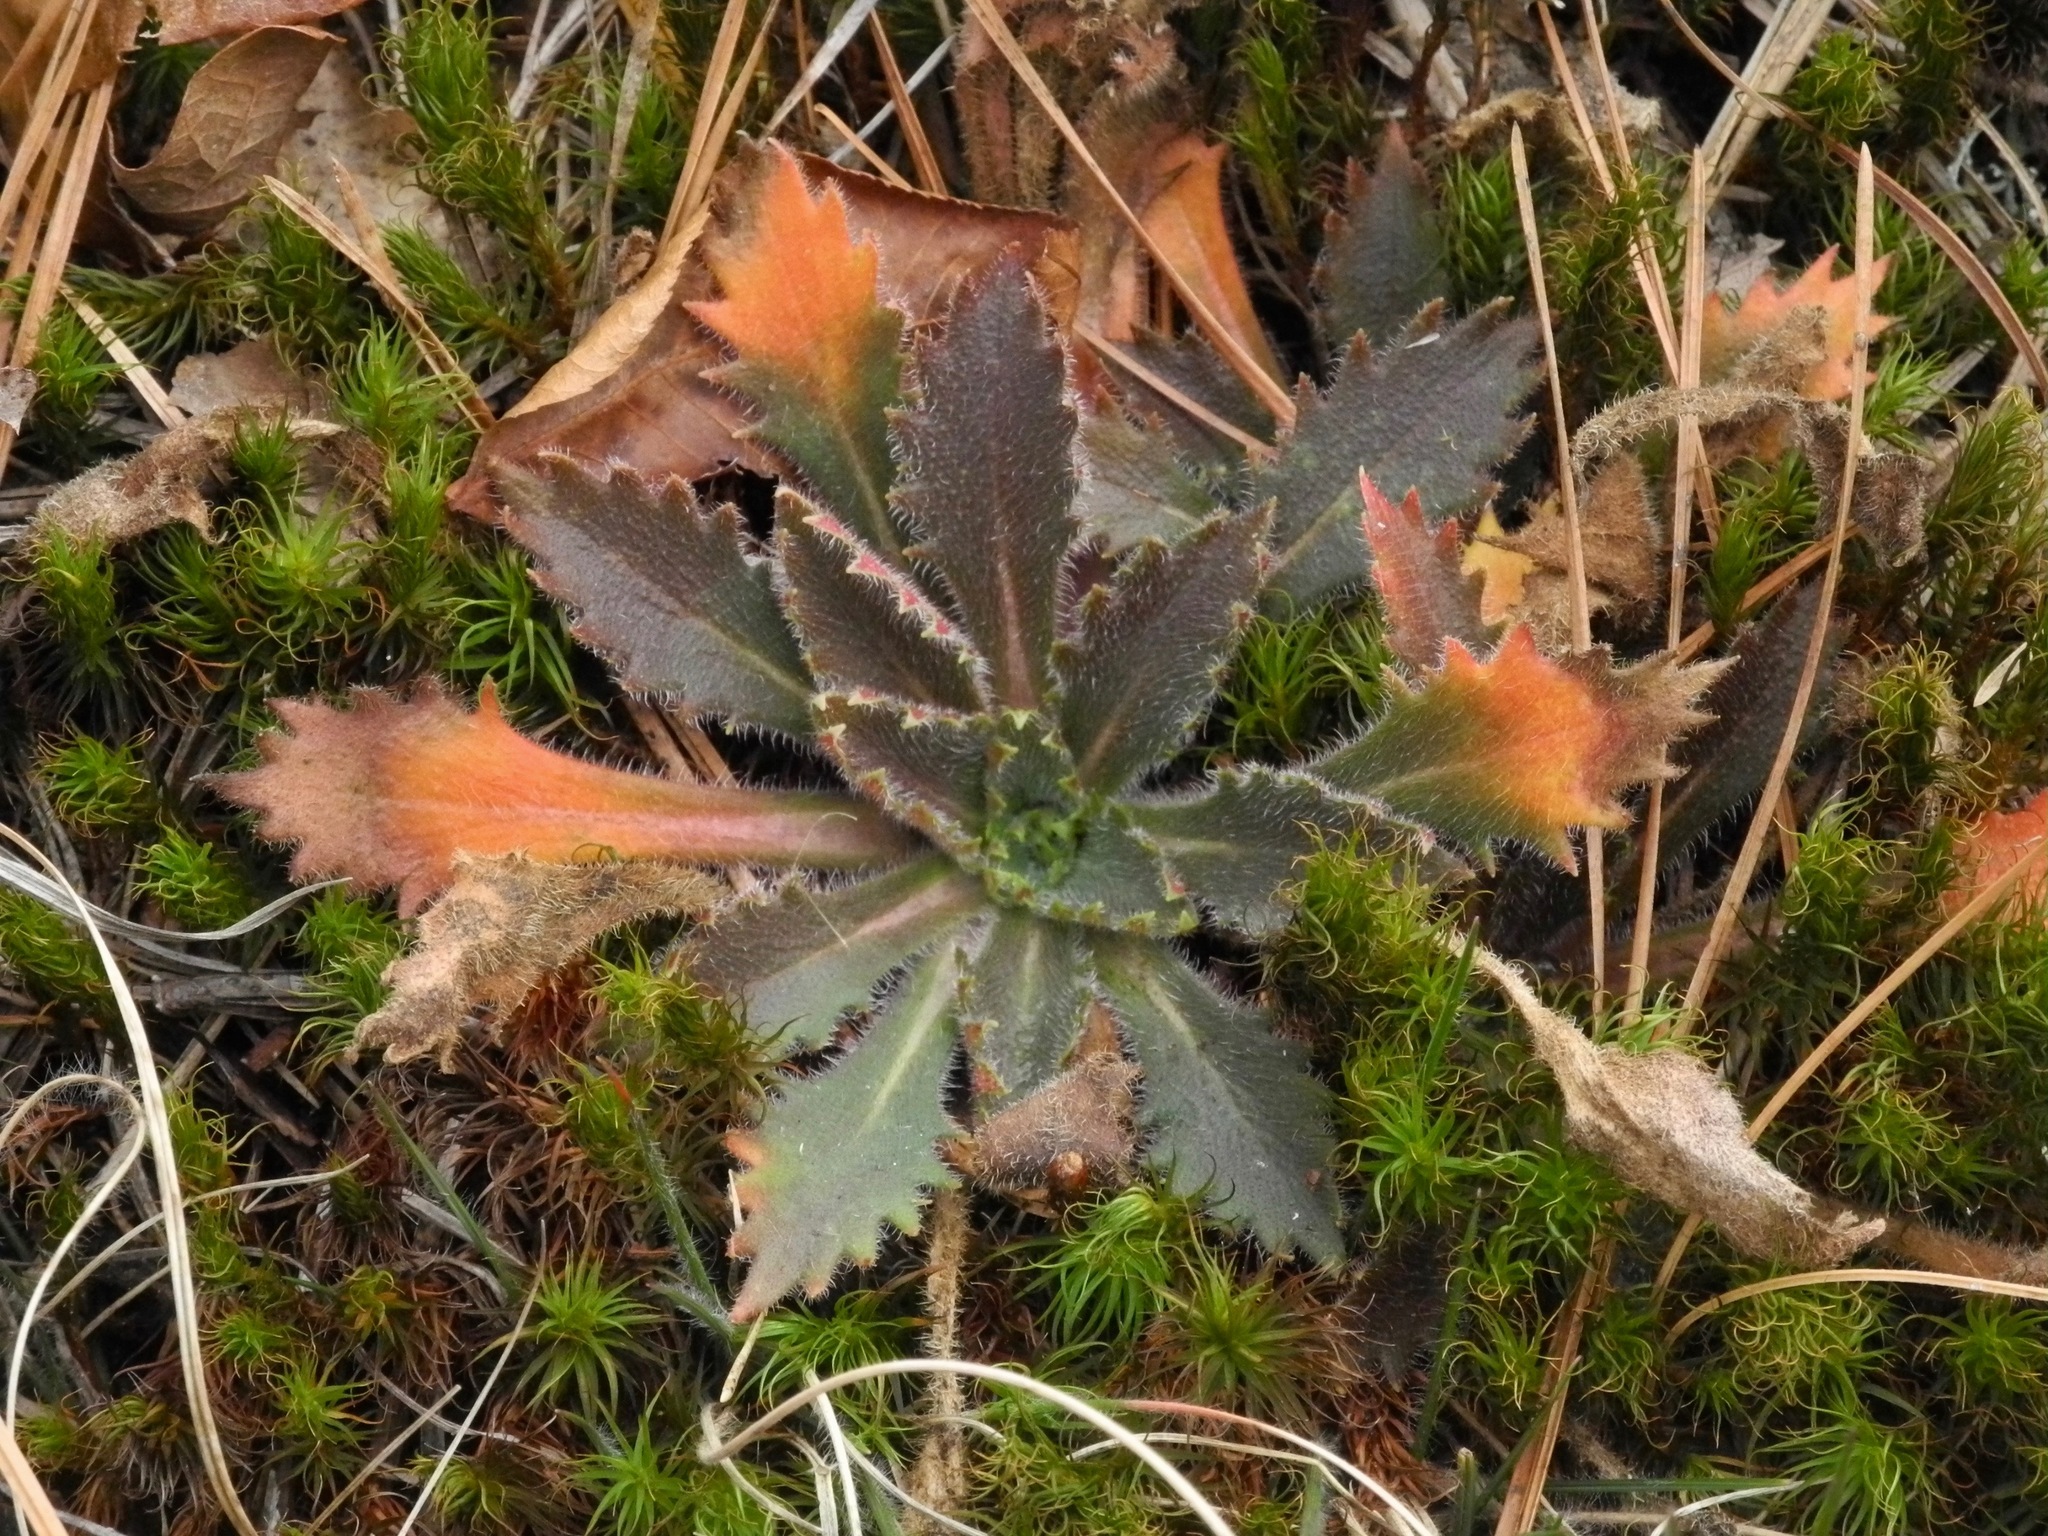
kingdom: Plantae
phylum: Tracheophyta
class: Magnoliopsida
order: Saxifragales
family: Saxifragaceae
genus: Micranthes
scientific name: Micranthes petiolaris
